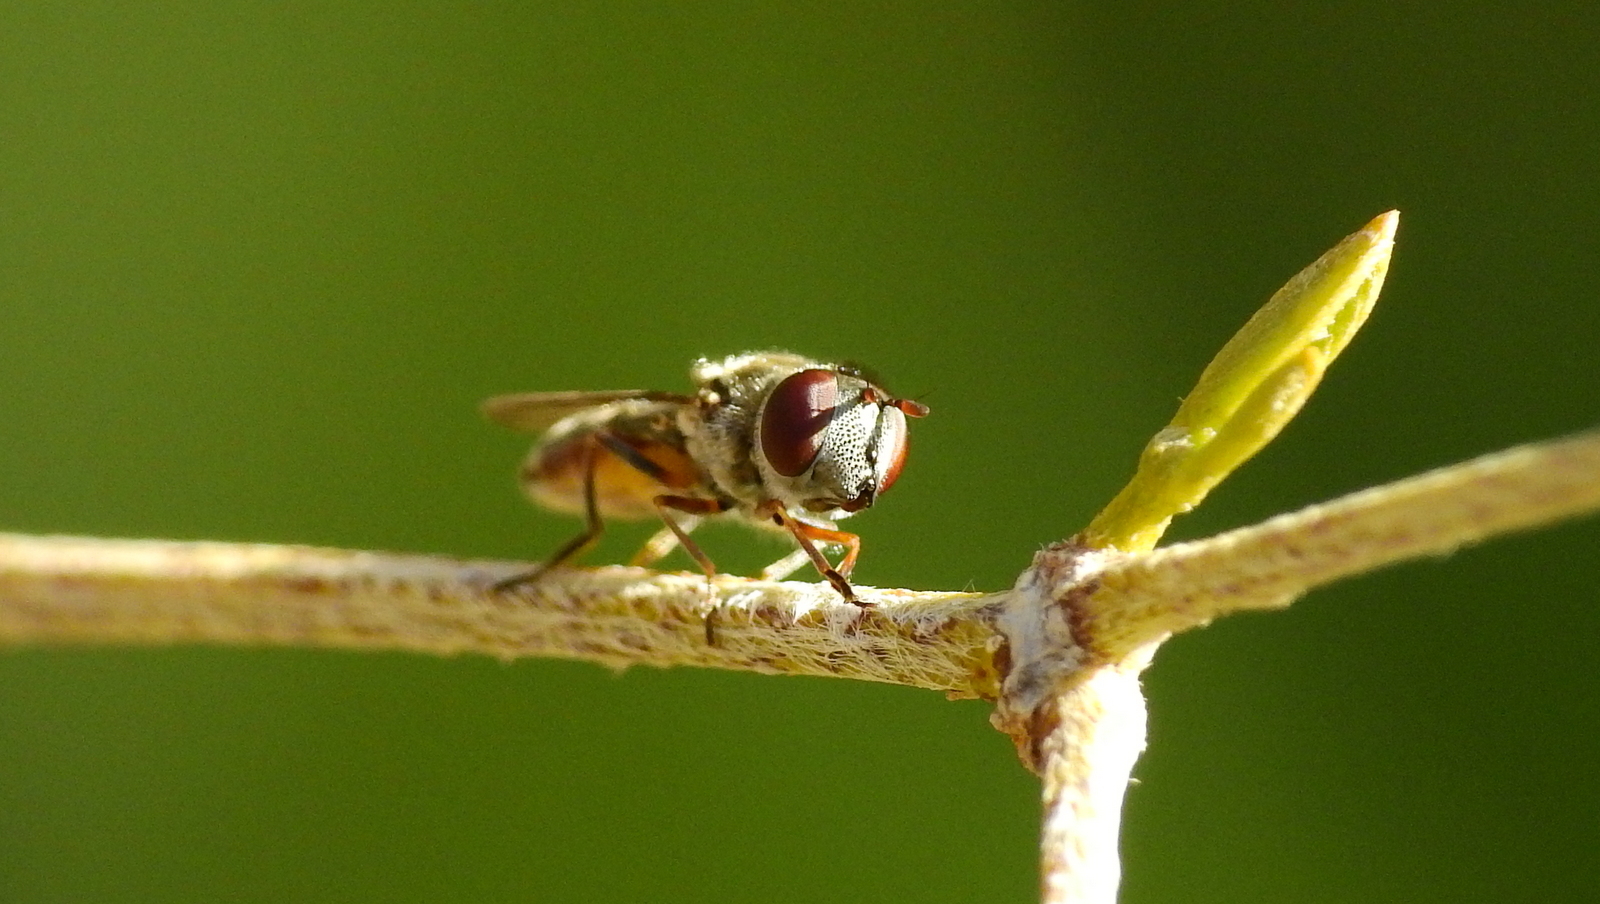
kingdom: Animalia
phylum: Arthropoda
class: Insecta
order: Diptera
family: Syrphidae
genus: Platycheirus
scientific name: Platycheirus chalconota
